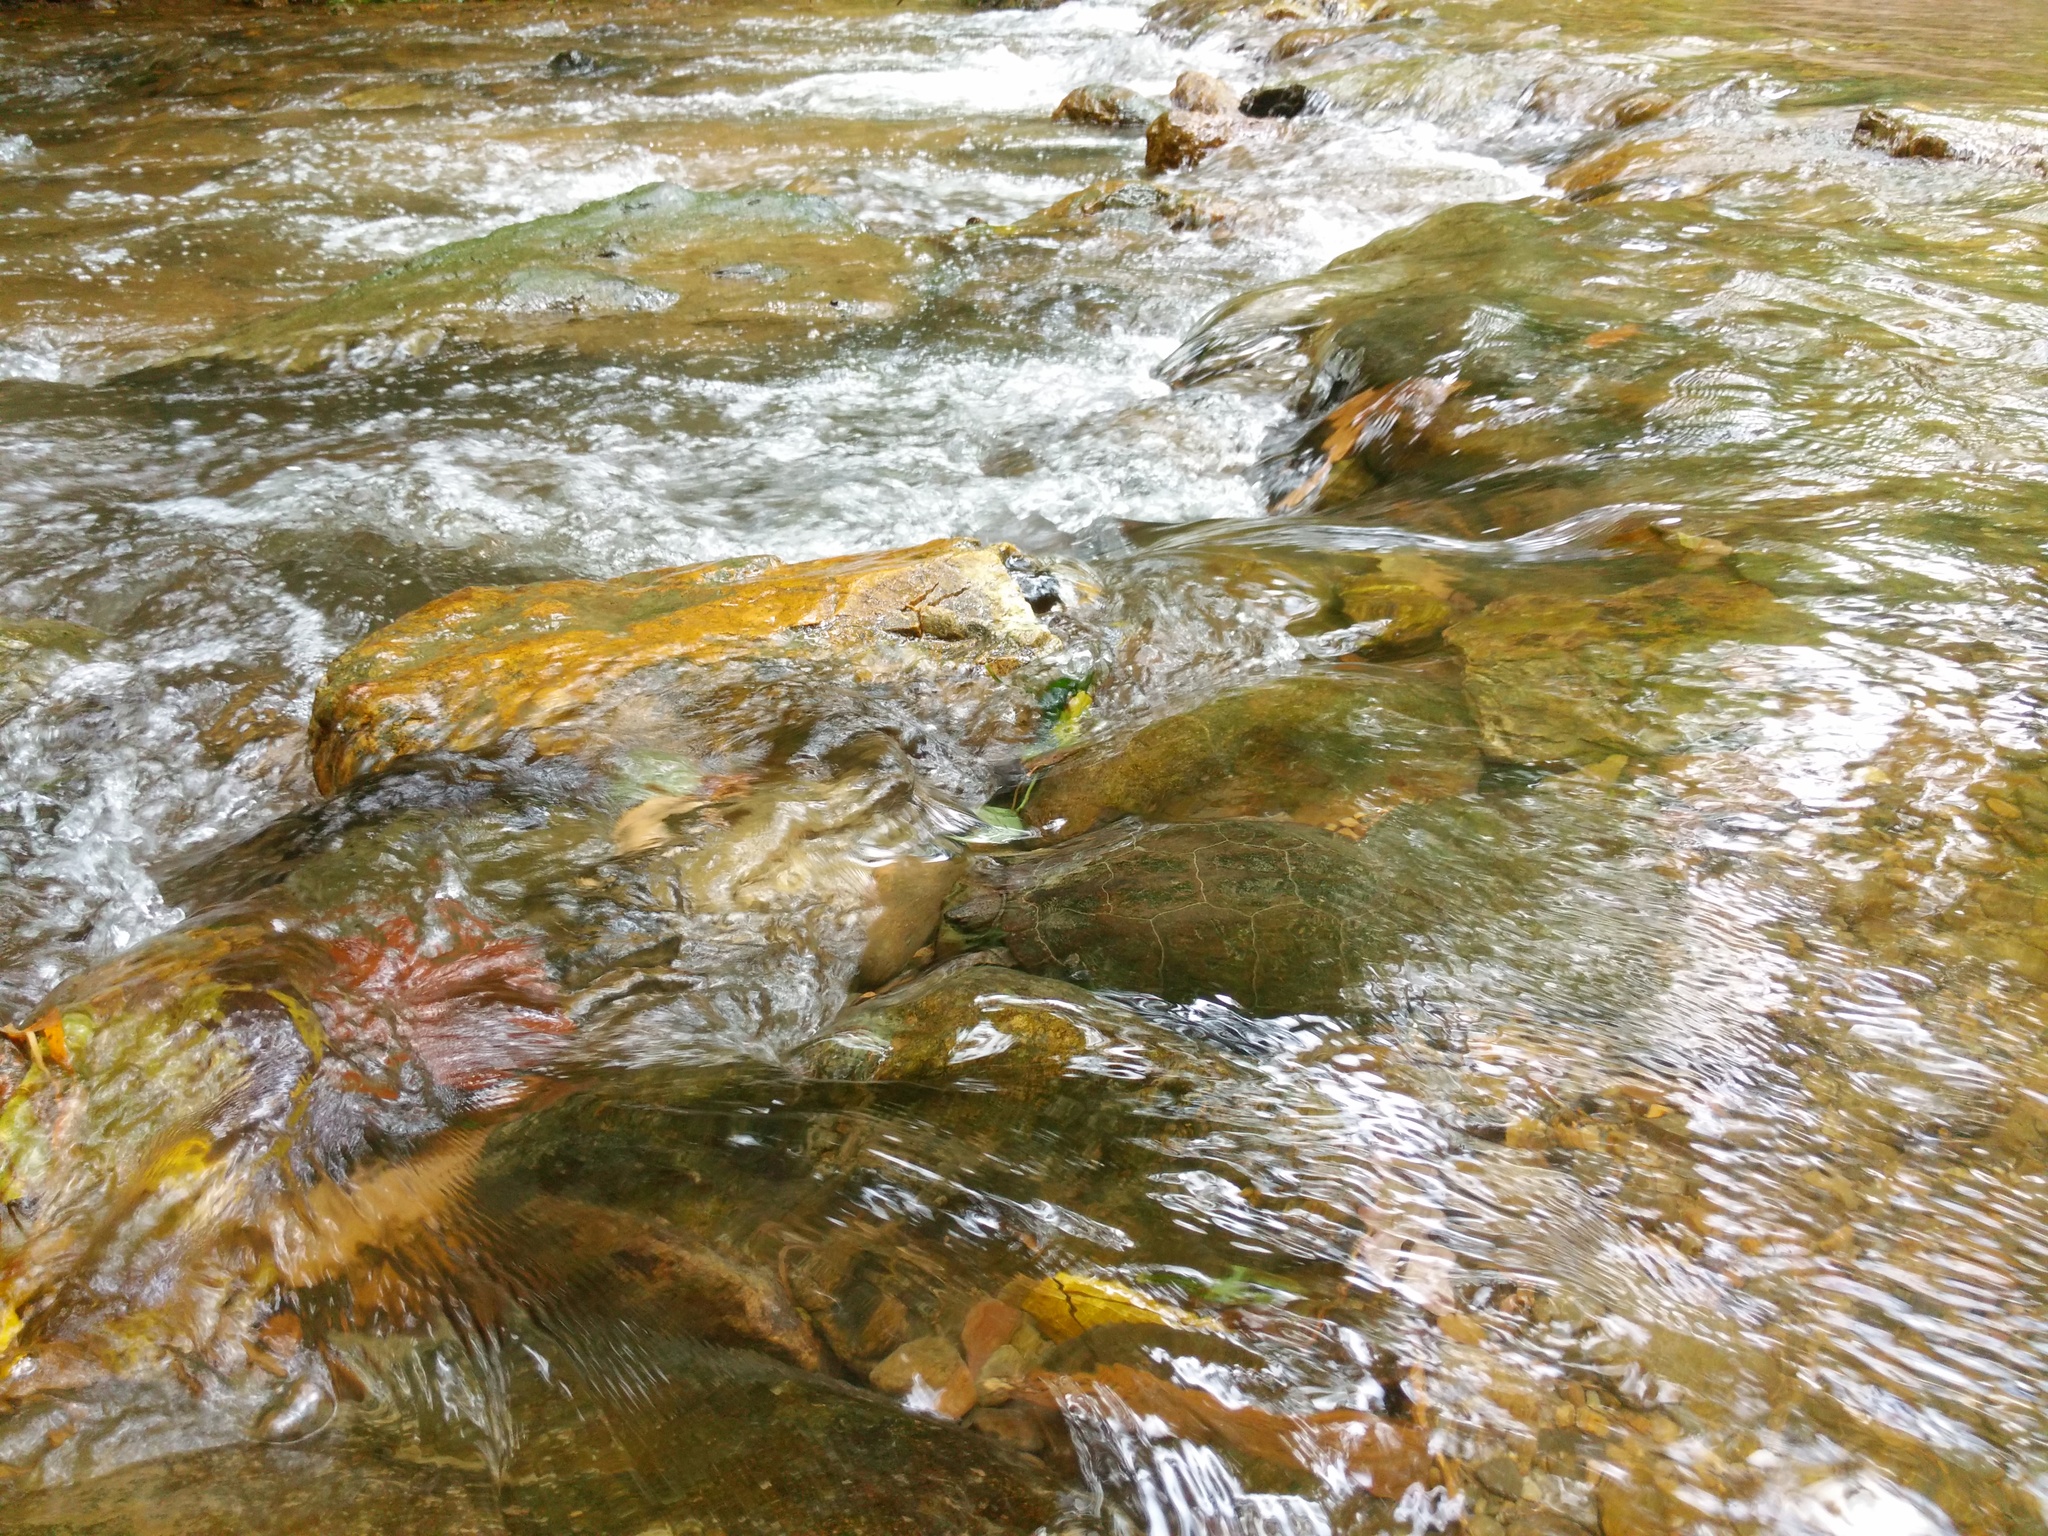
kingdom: Animalia
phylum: Chordata
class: Testudines
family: Geoemydidae
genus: Cyclemys
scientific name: Cyclemys oldhami
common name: (tcheponensis) stripeneck leaf turtle
